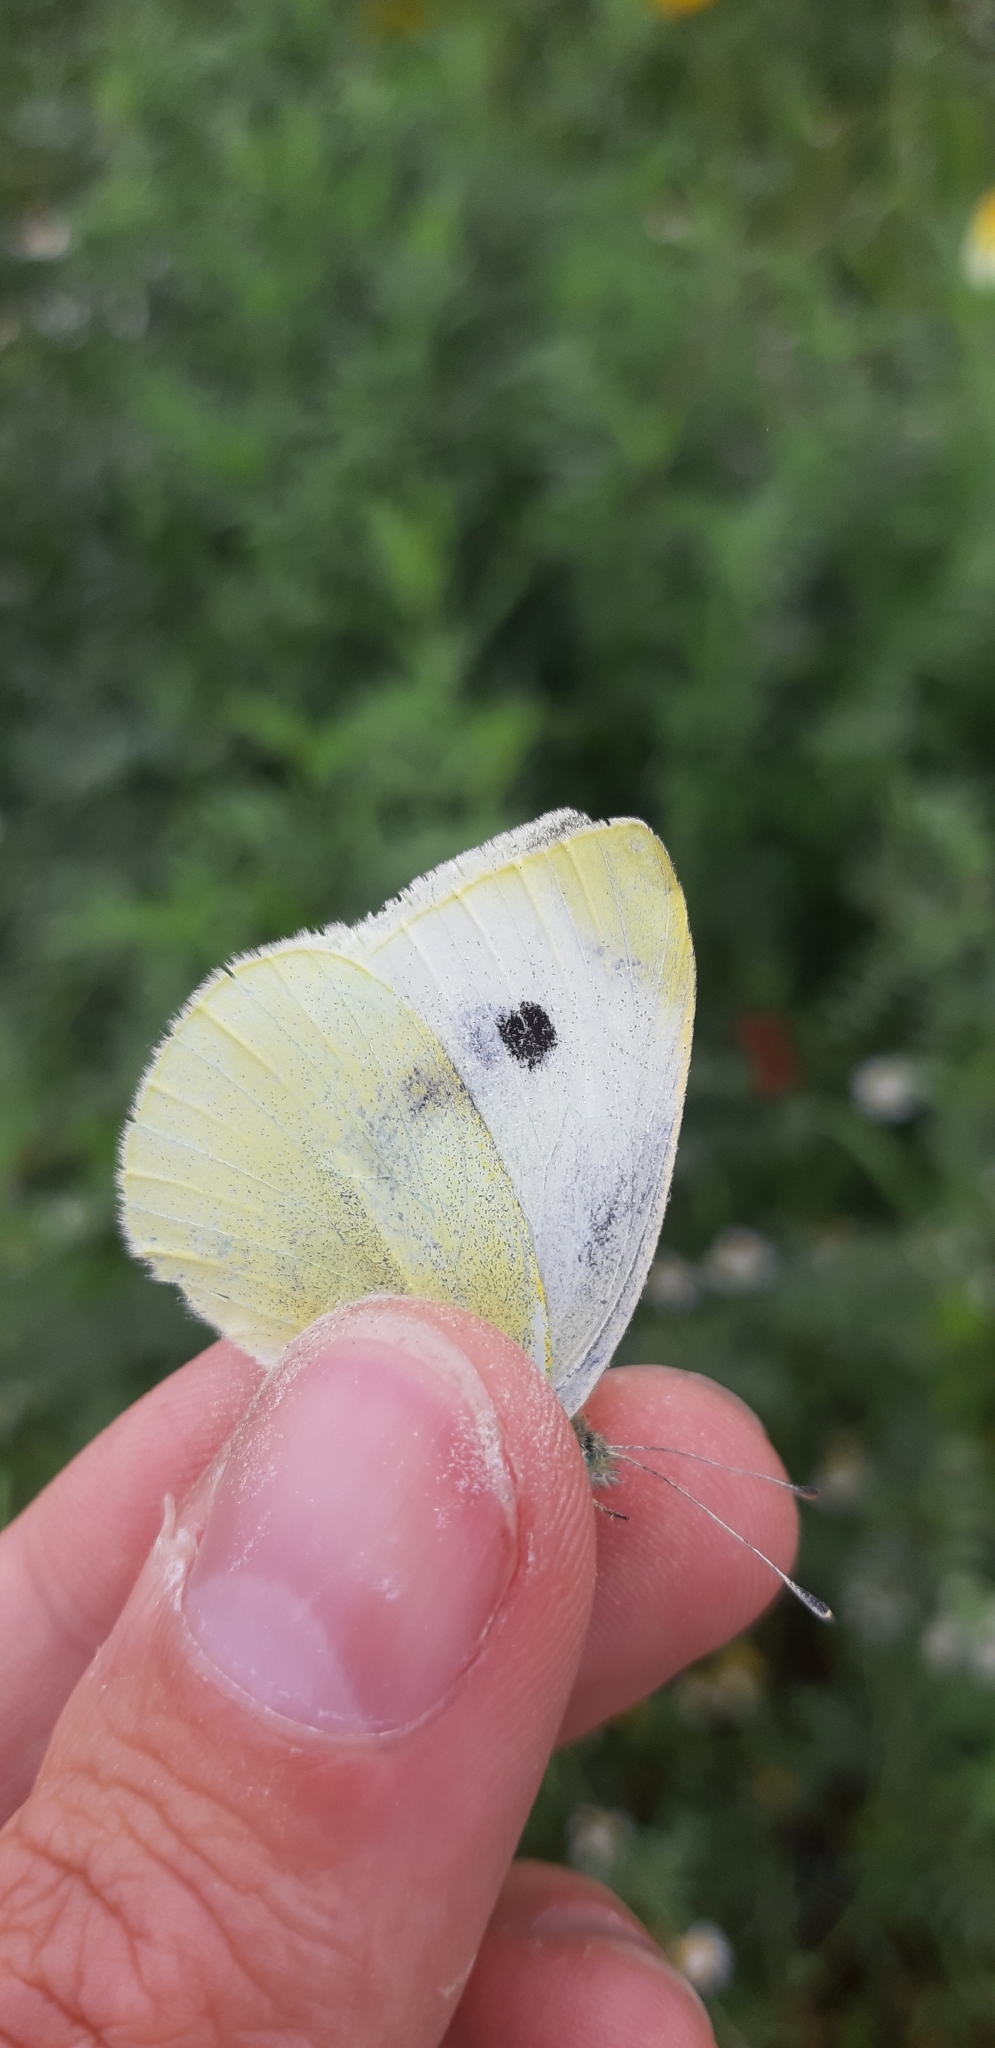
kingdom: Animalia
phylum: Arthropoda
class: Insecta
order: Lepidoptera
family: Pieridae
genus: Pieris
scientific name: Pieris rapae
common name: Small white
